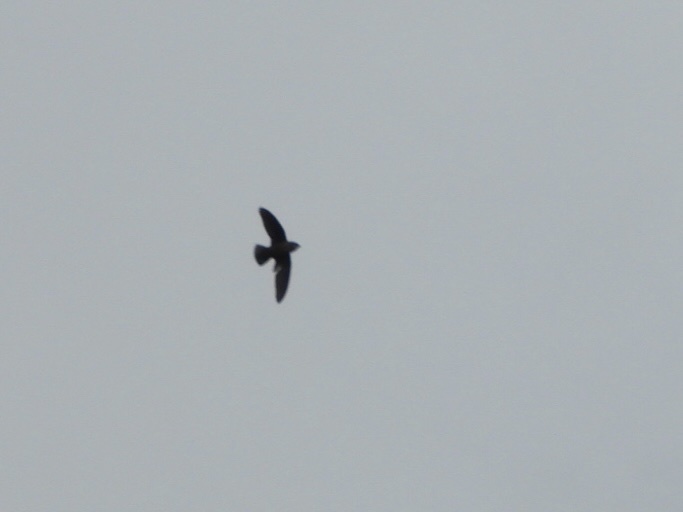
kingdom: Animalia
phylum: Chordata
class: Aves
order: Apodiformes
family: Apodidae
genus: Chaetura
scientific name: Chaetura vauxi
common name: Vaux's swift
